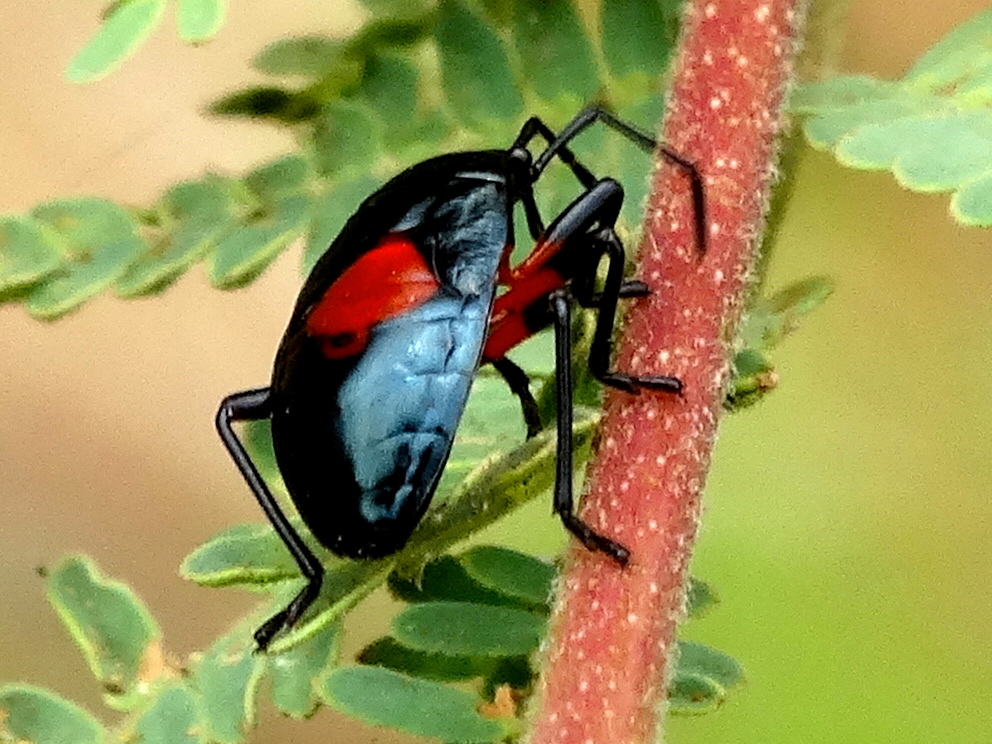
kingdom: Animalia
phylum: Arthropoda
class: Insecta
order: Hemiptera
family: Largidae
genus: Largus
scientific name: Largus
